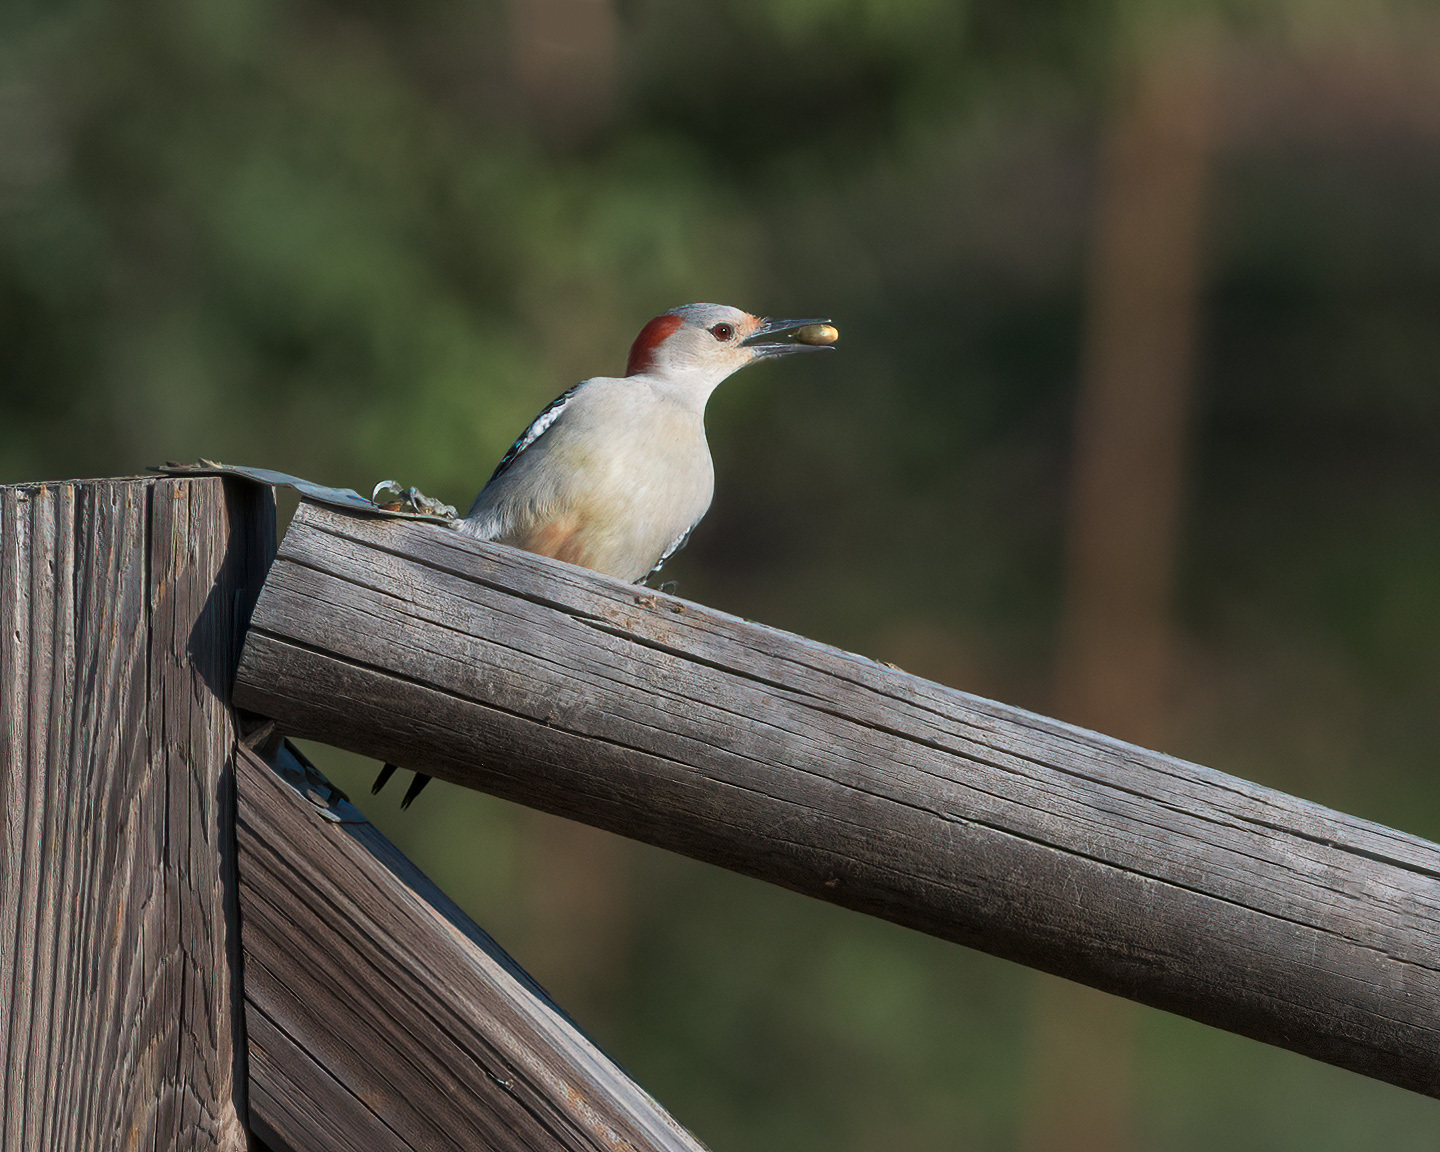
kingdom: Animalia
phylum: Chordata
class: Aves
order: Piciformes
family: Picidae
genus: Melanerpes
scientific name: Melanerpes carolinus
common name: Red-bellied woodpecker
